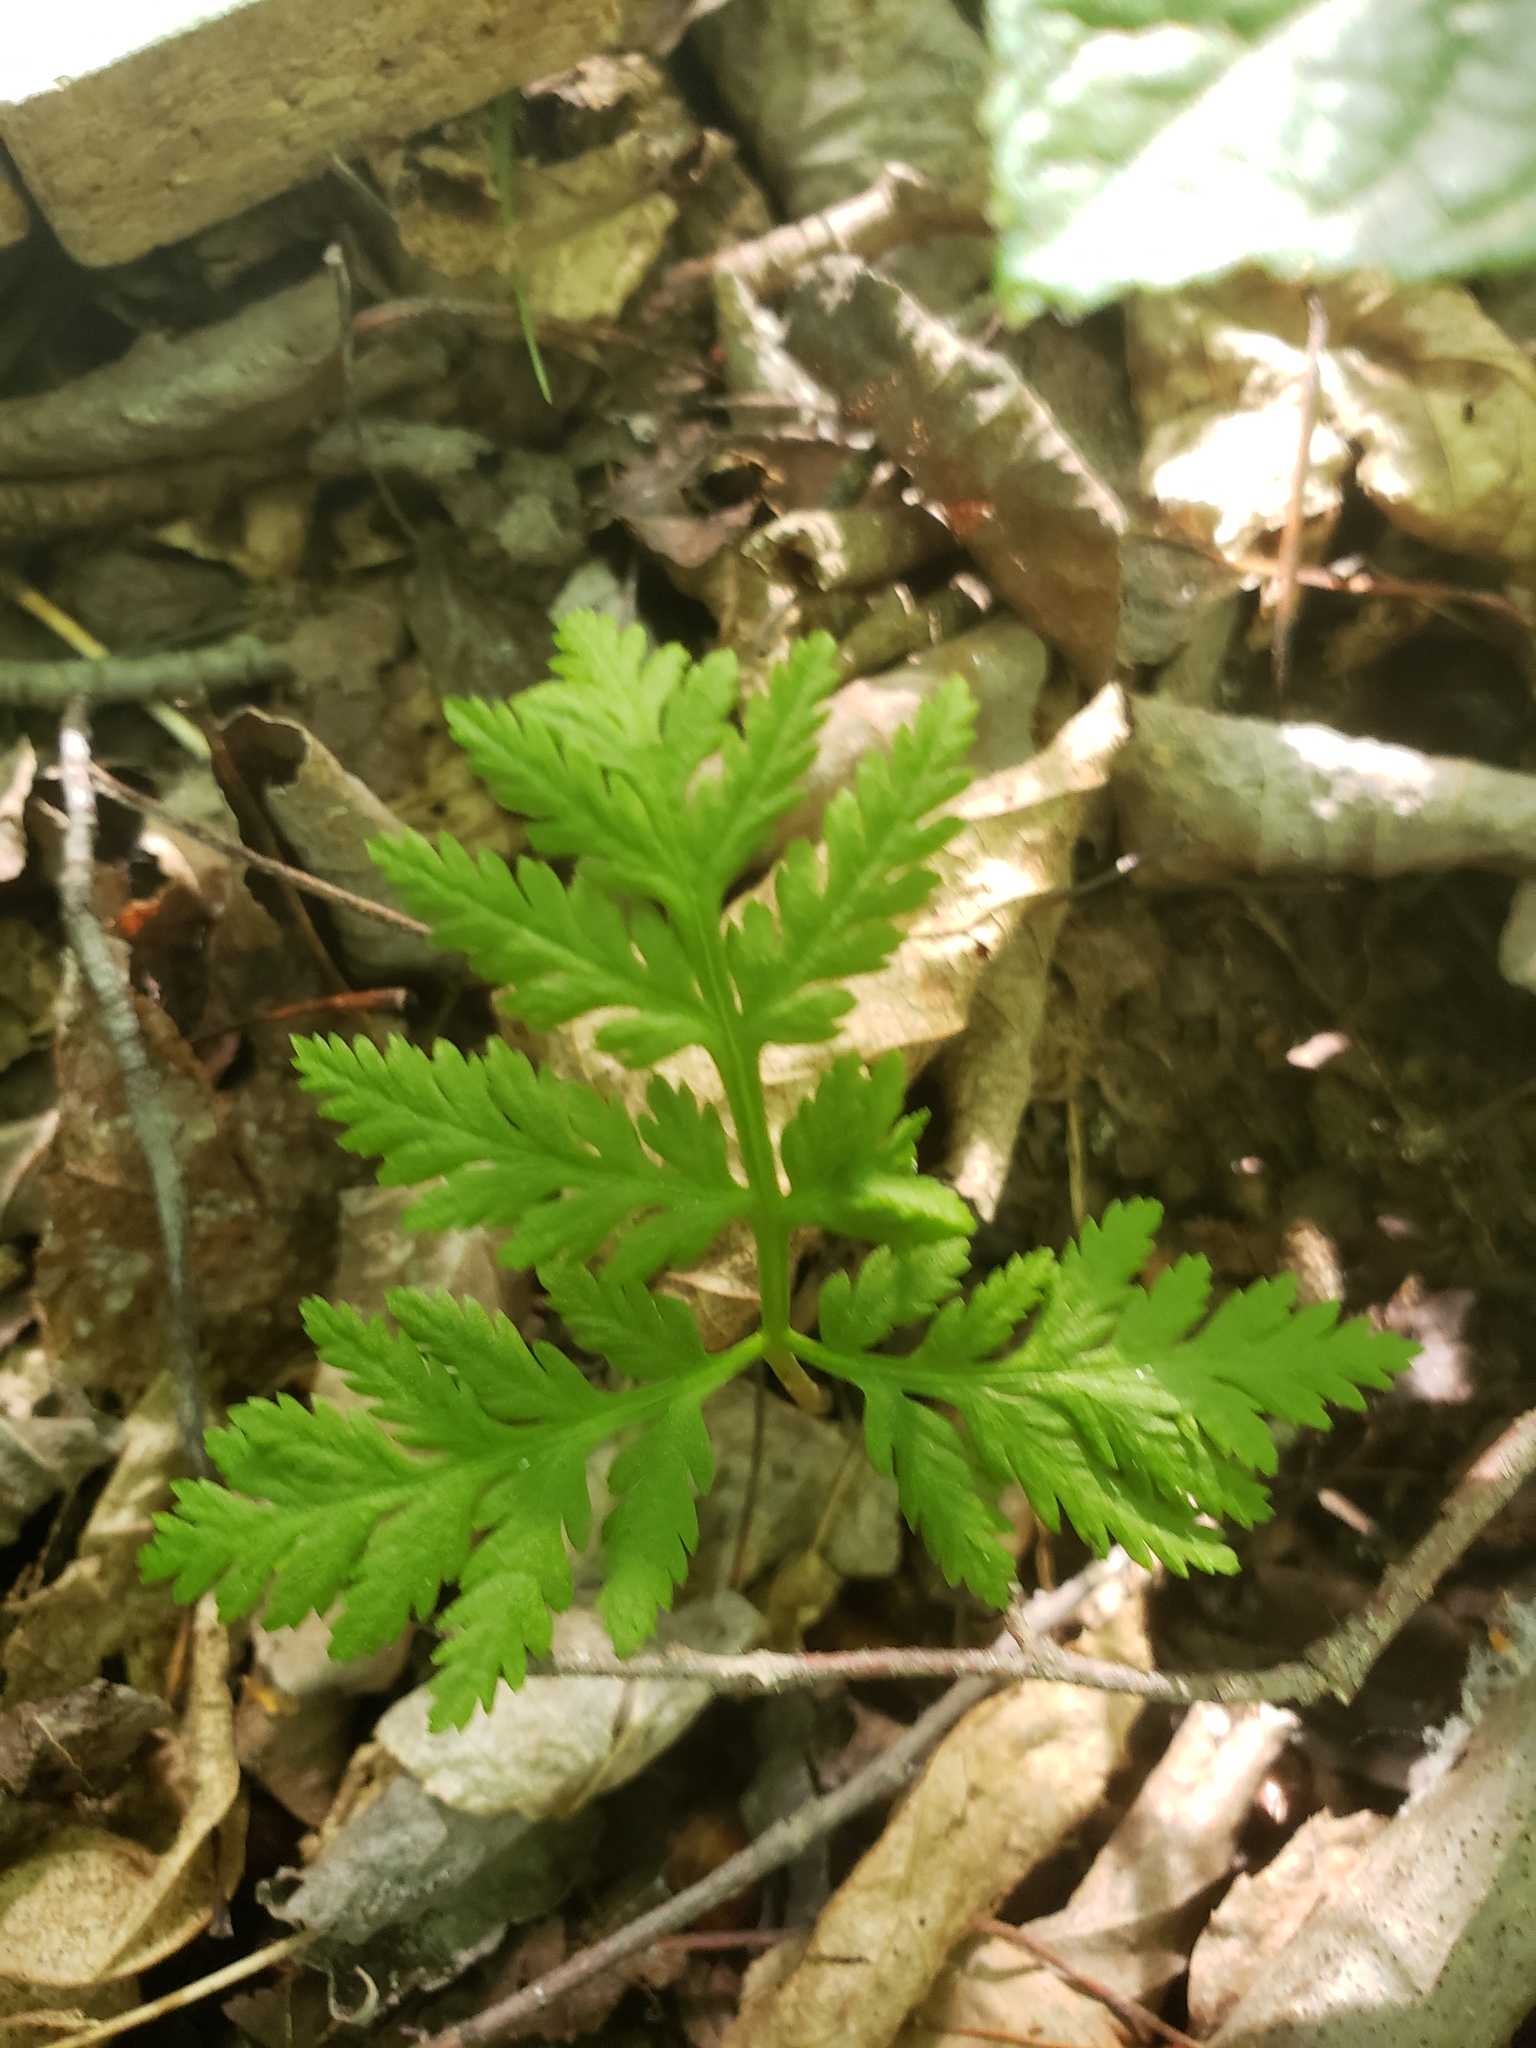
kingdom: Plantae
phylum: Tracheophyta
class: Polypodiopsida
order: Ophioglossales
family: Ophioglossaceae
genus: Botrypus
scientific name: Botrypus virginianus
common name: Common grapefern
